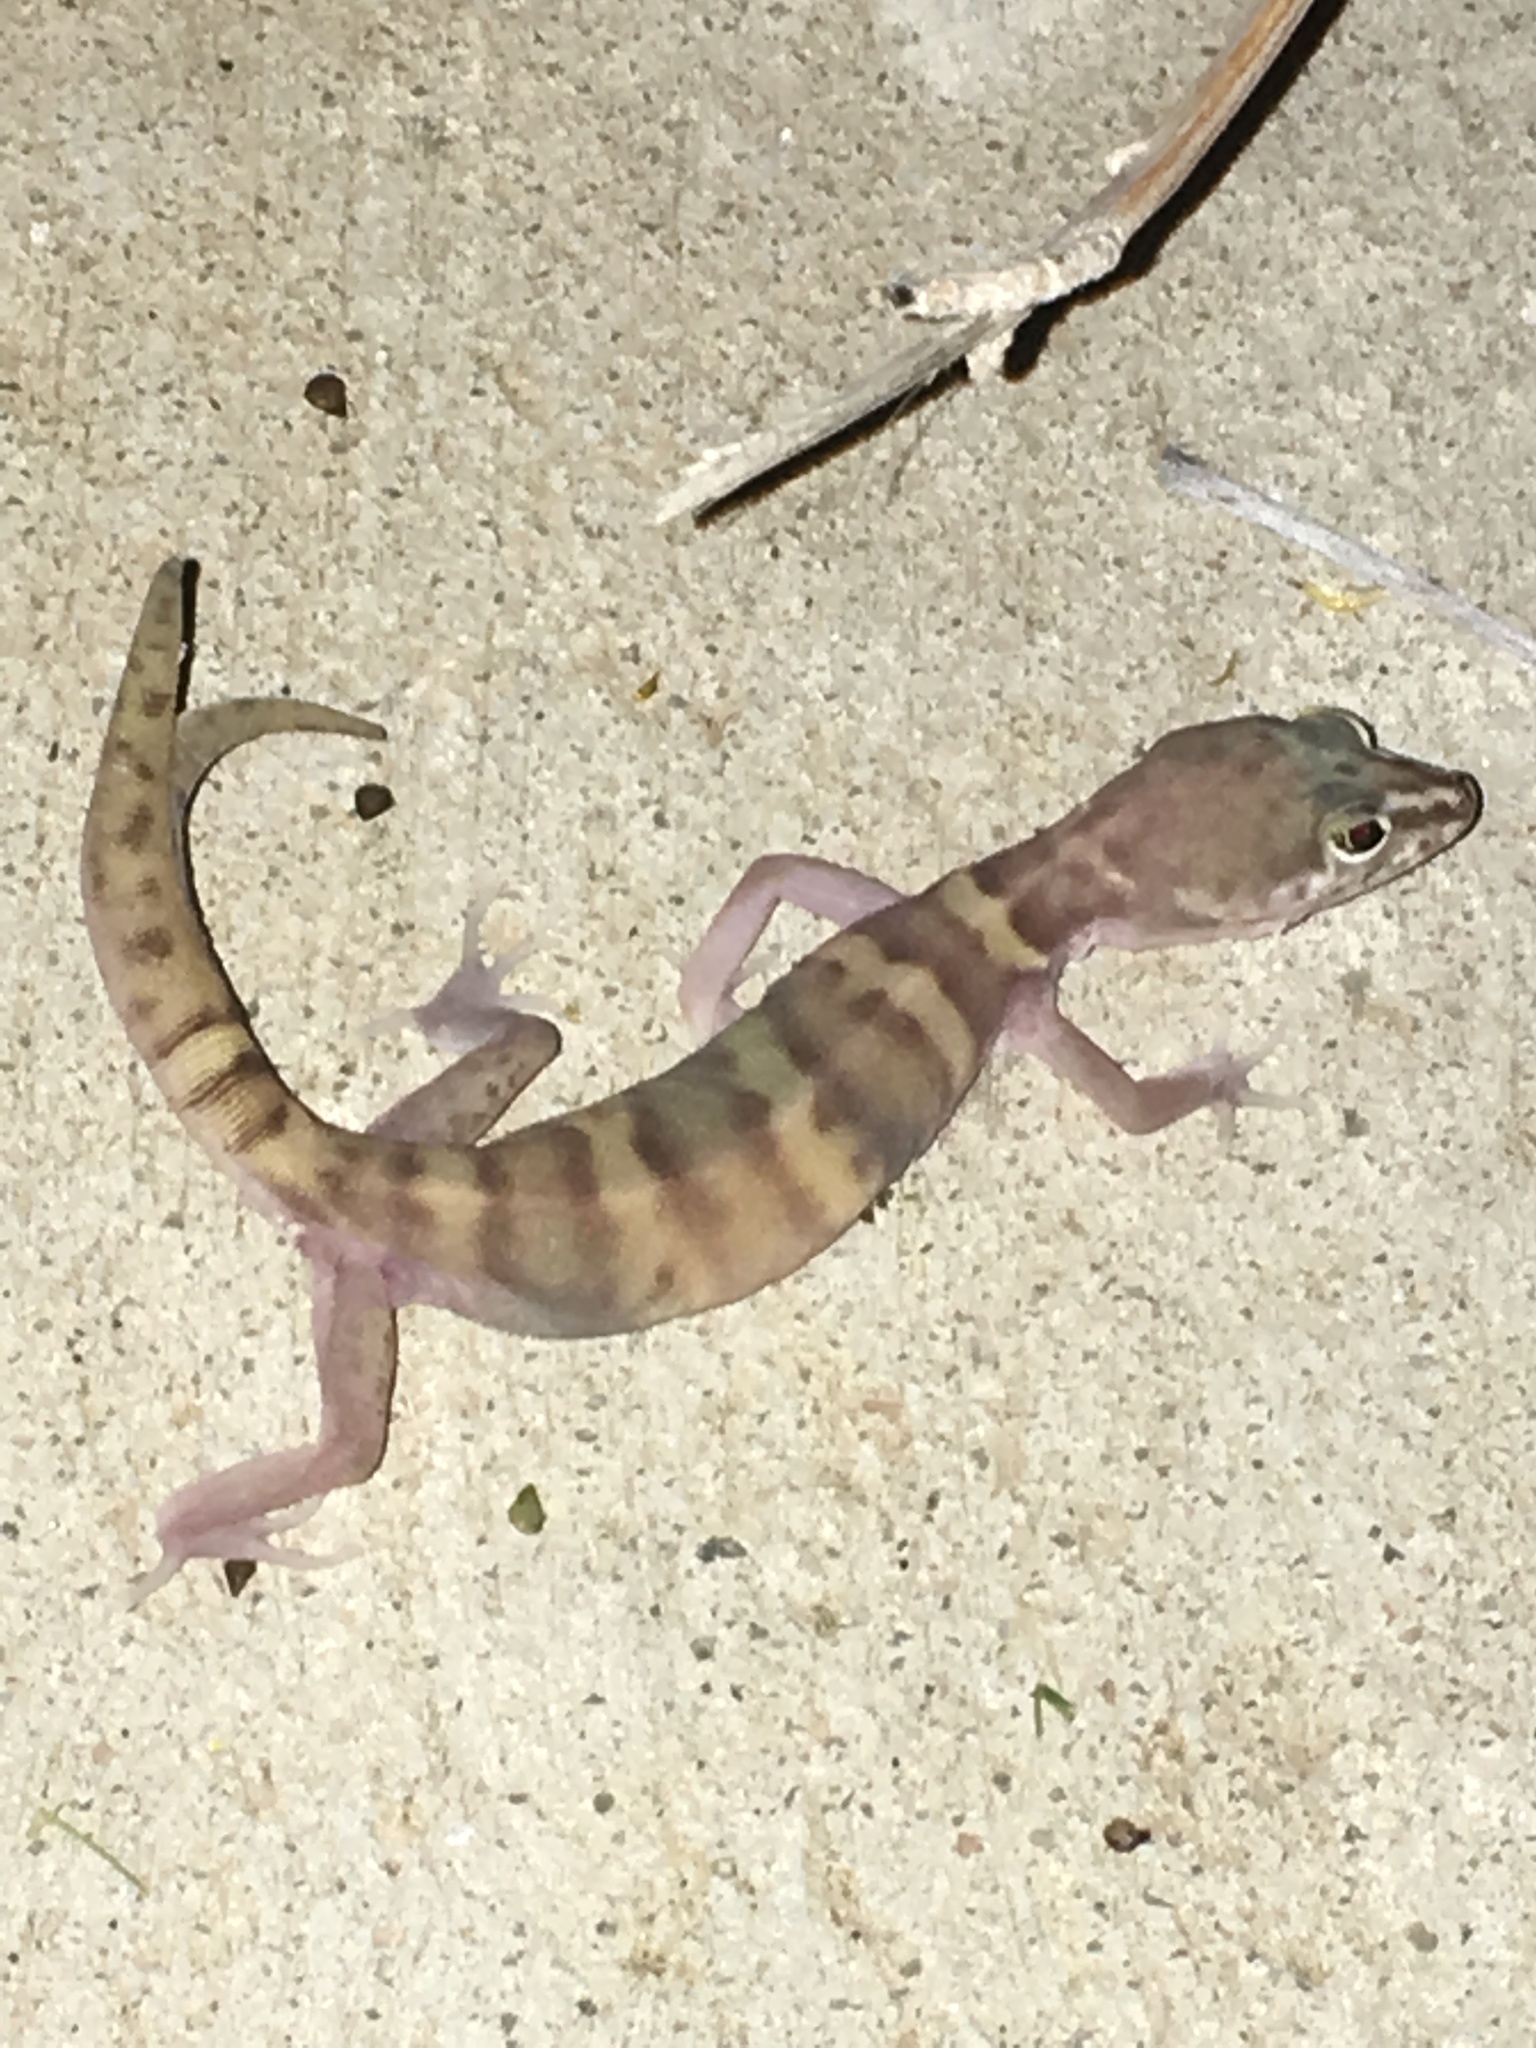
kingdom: Animalia
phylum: Chordata
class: Squamata
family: Eublepharidae
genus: Coleonyx
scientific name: Coleonyx variegatus
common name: Western banded gecko
